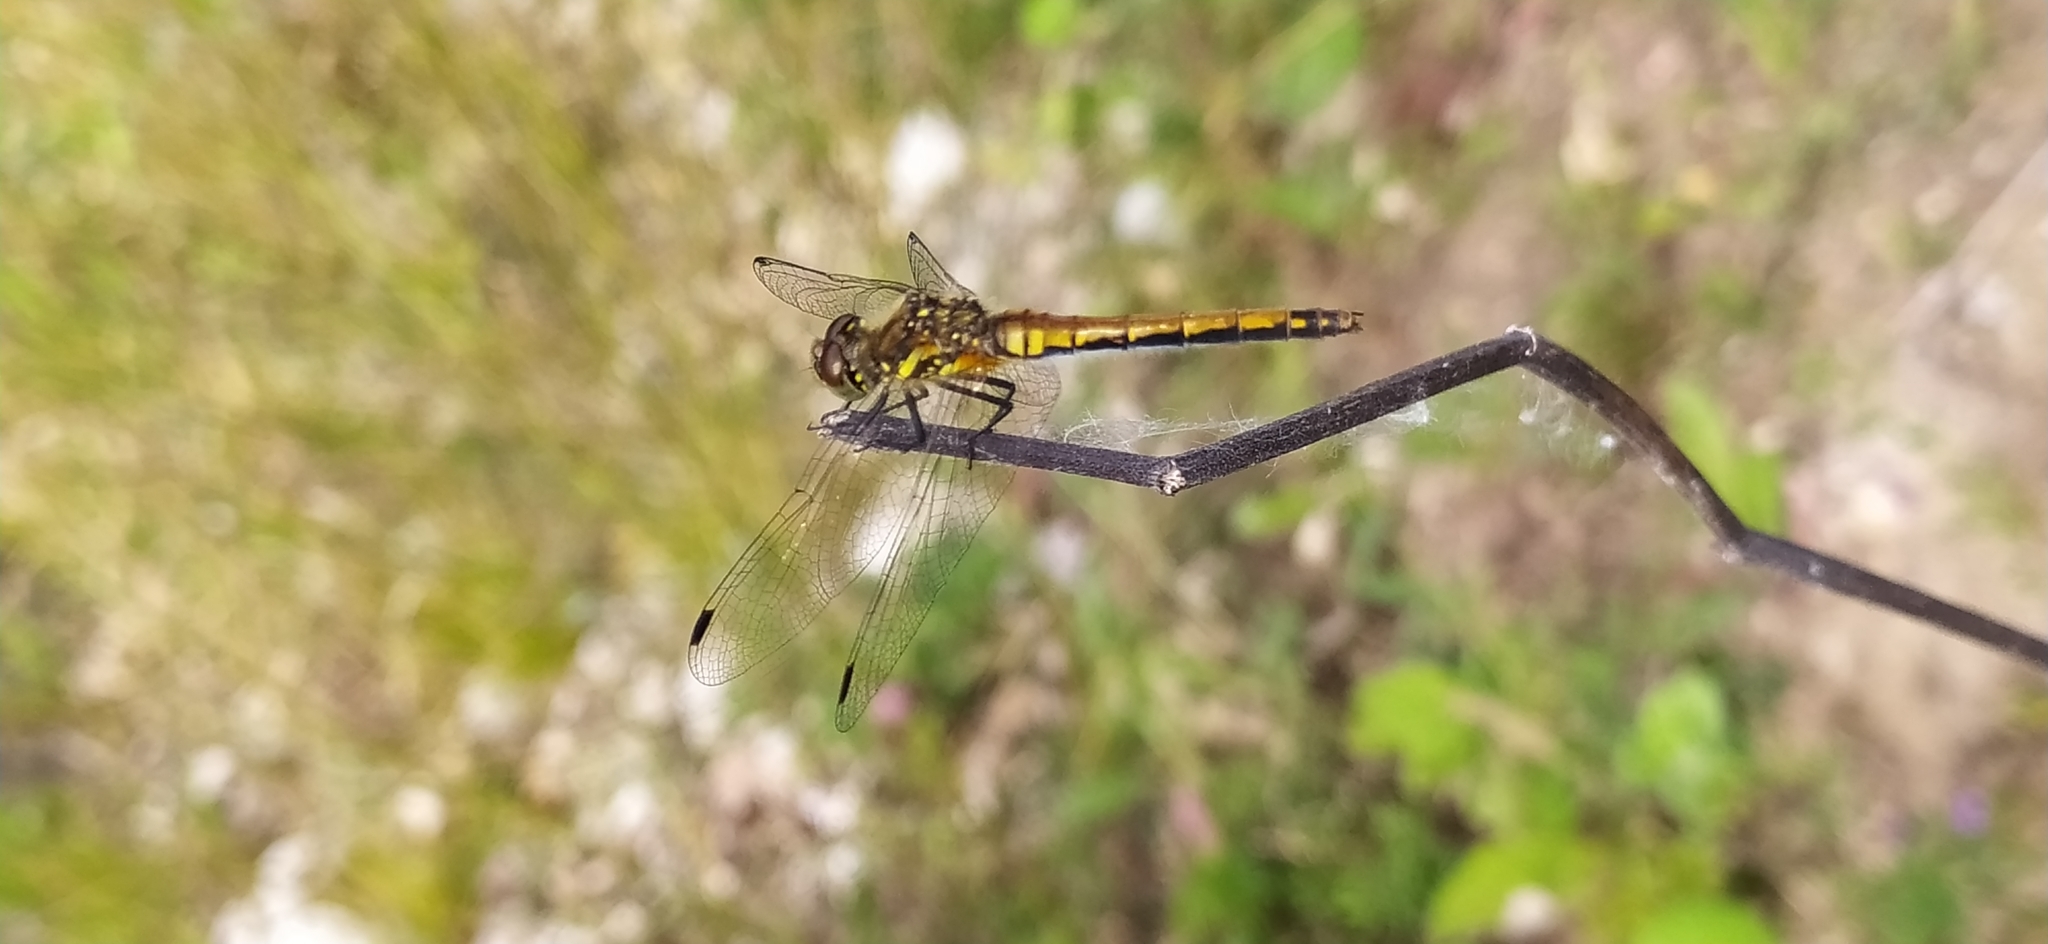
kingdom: Animalia
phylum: Arthropoda
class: Insecta
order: Odonata
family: Libellulidae
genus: Sympetrum
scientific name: Sympetrum danae
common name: Black darter
